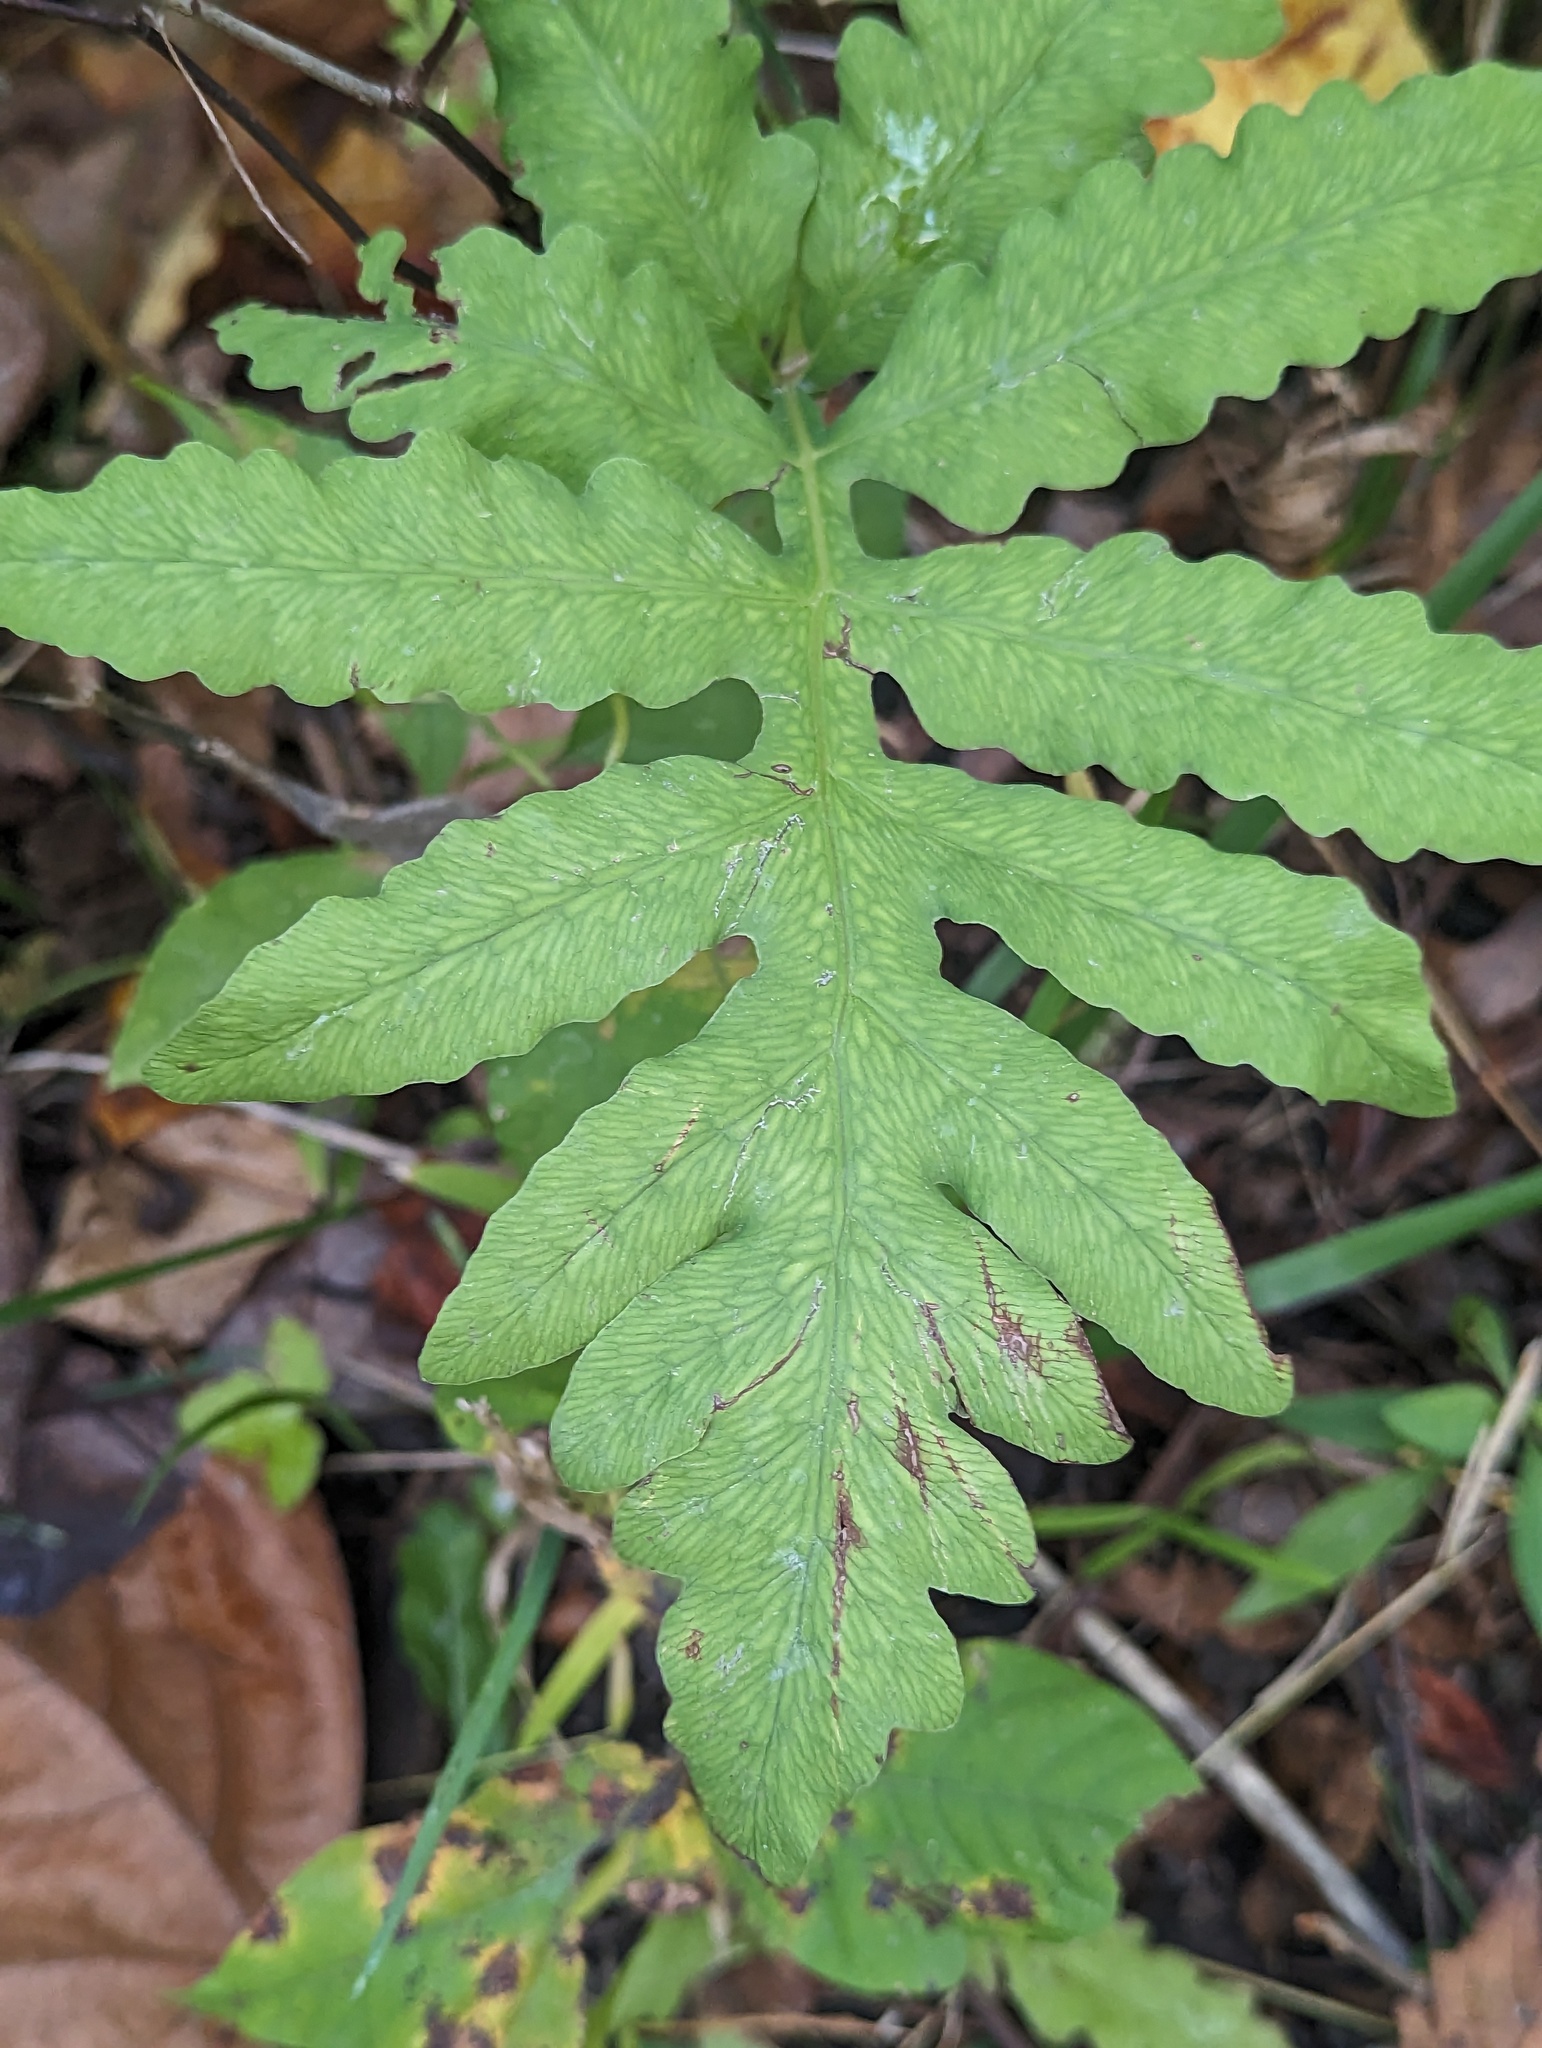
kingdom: Plantae
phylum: Tracheophyta
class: Polypodiopsida
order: Polypodiales
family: Onocleaceae
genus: Onoclea
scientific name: Onoclea sensibilis
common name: Sensitive fern
